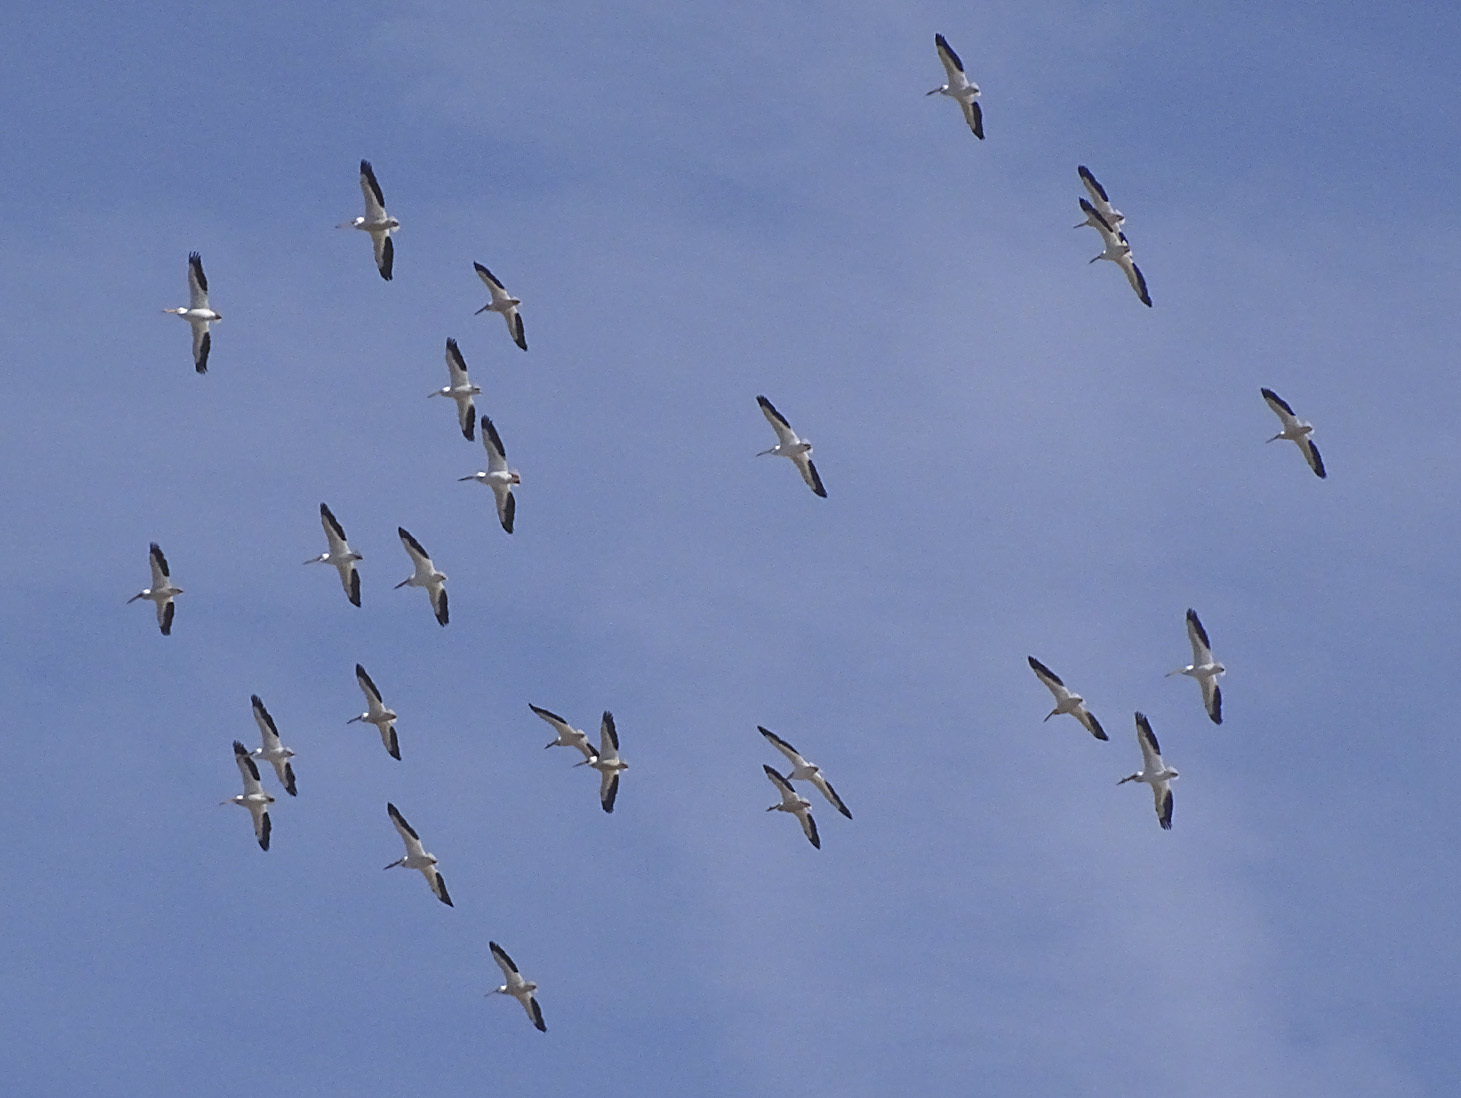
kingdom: Animalia
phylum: Chordata
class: Aves
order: Pelecaniformes
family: Pelecanidae
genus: Pelecanus
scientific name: Pelecanus erythrorhynchos
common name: American white pelican
